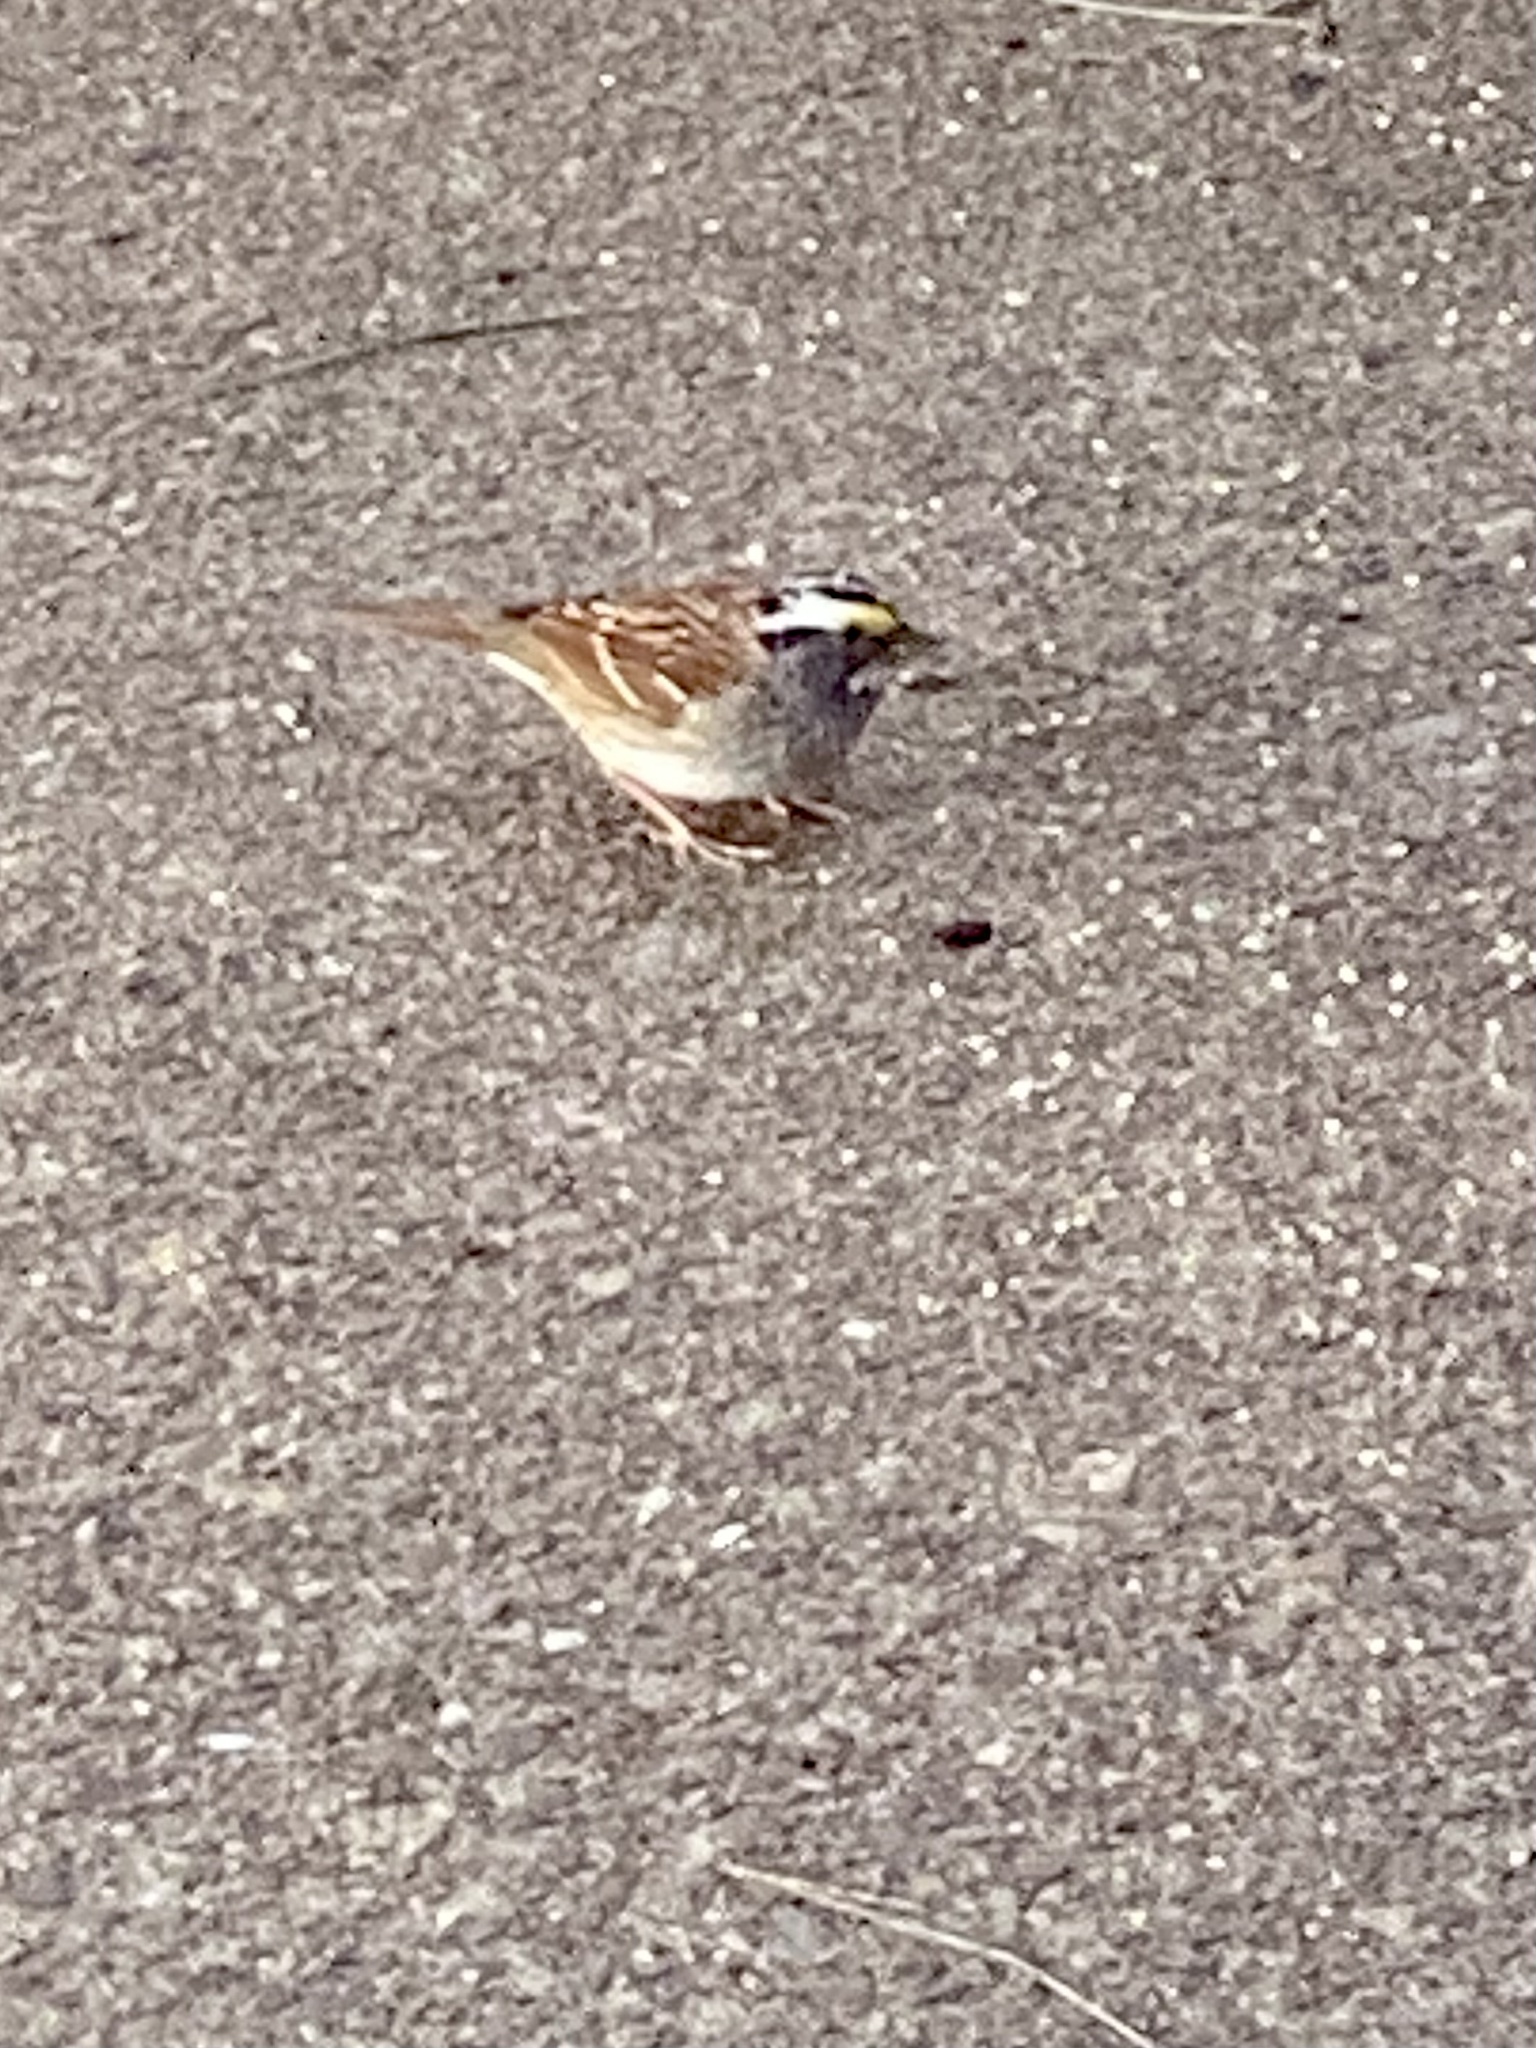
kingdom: Animalia
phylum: Chordata
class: Aves
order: Passeriformes
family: Passerellidae
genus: Zonotrichia
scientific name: Zonotrichia albicollis
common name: White-throated sparrow
